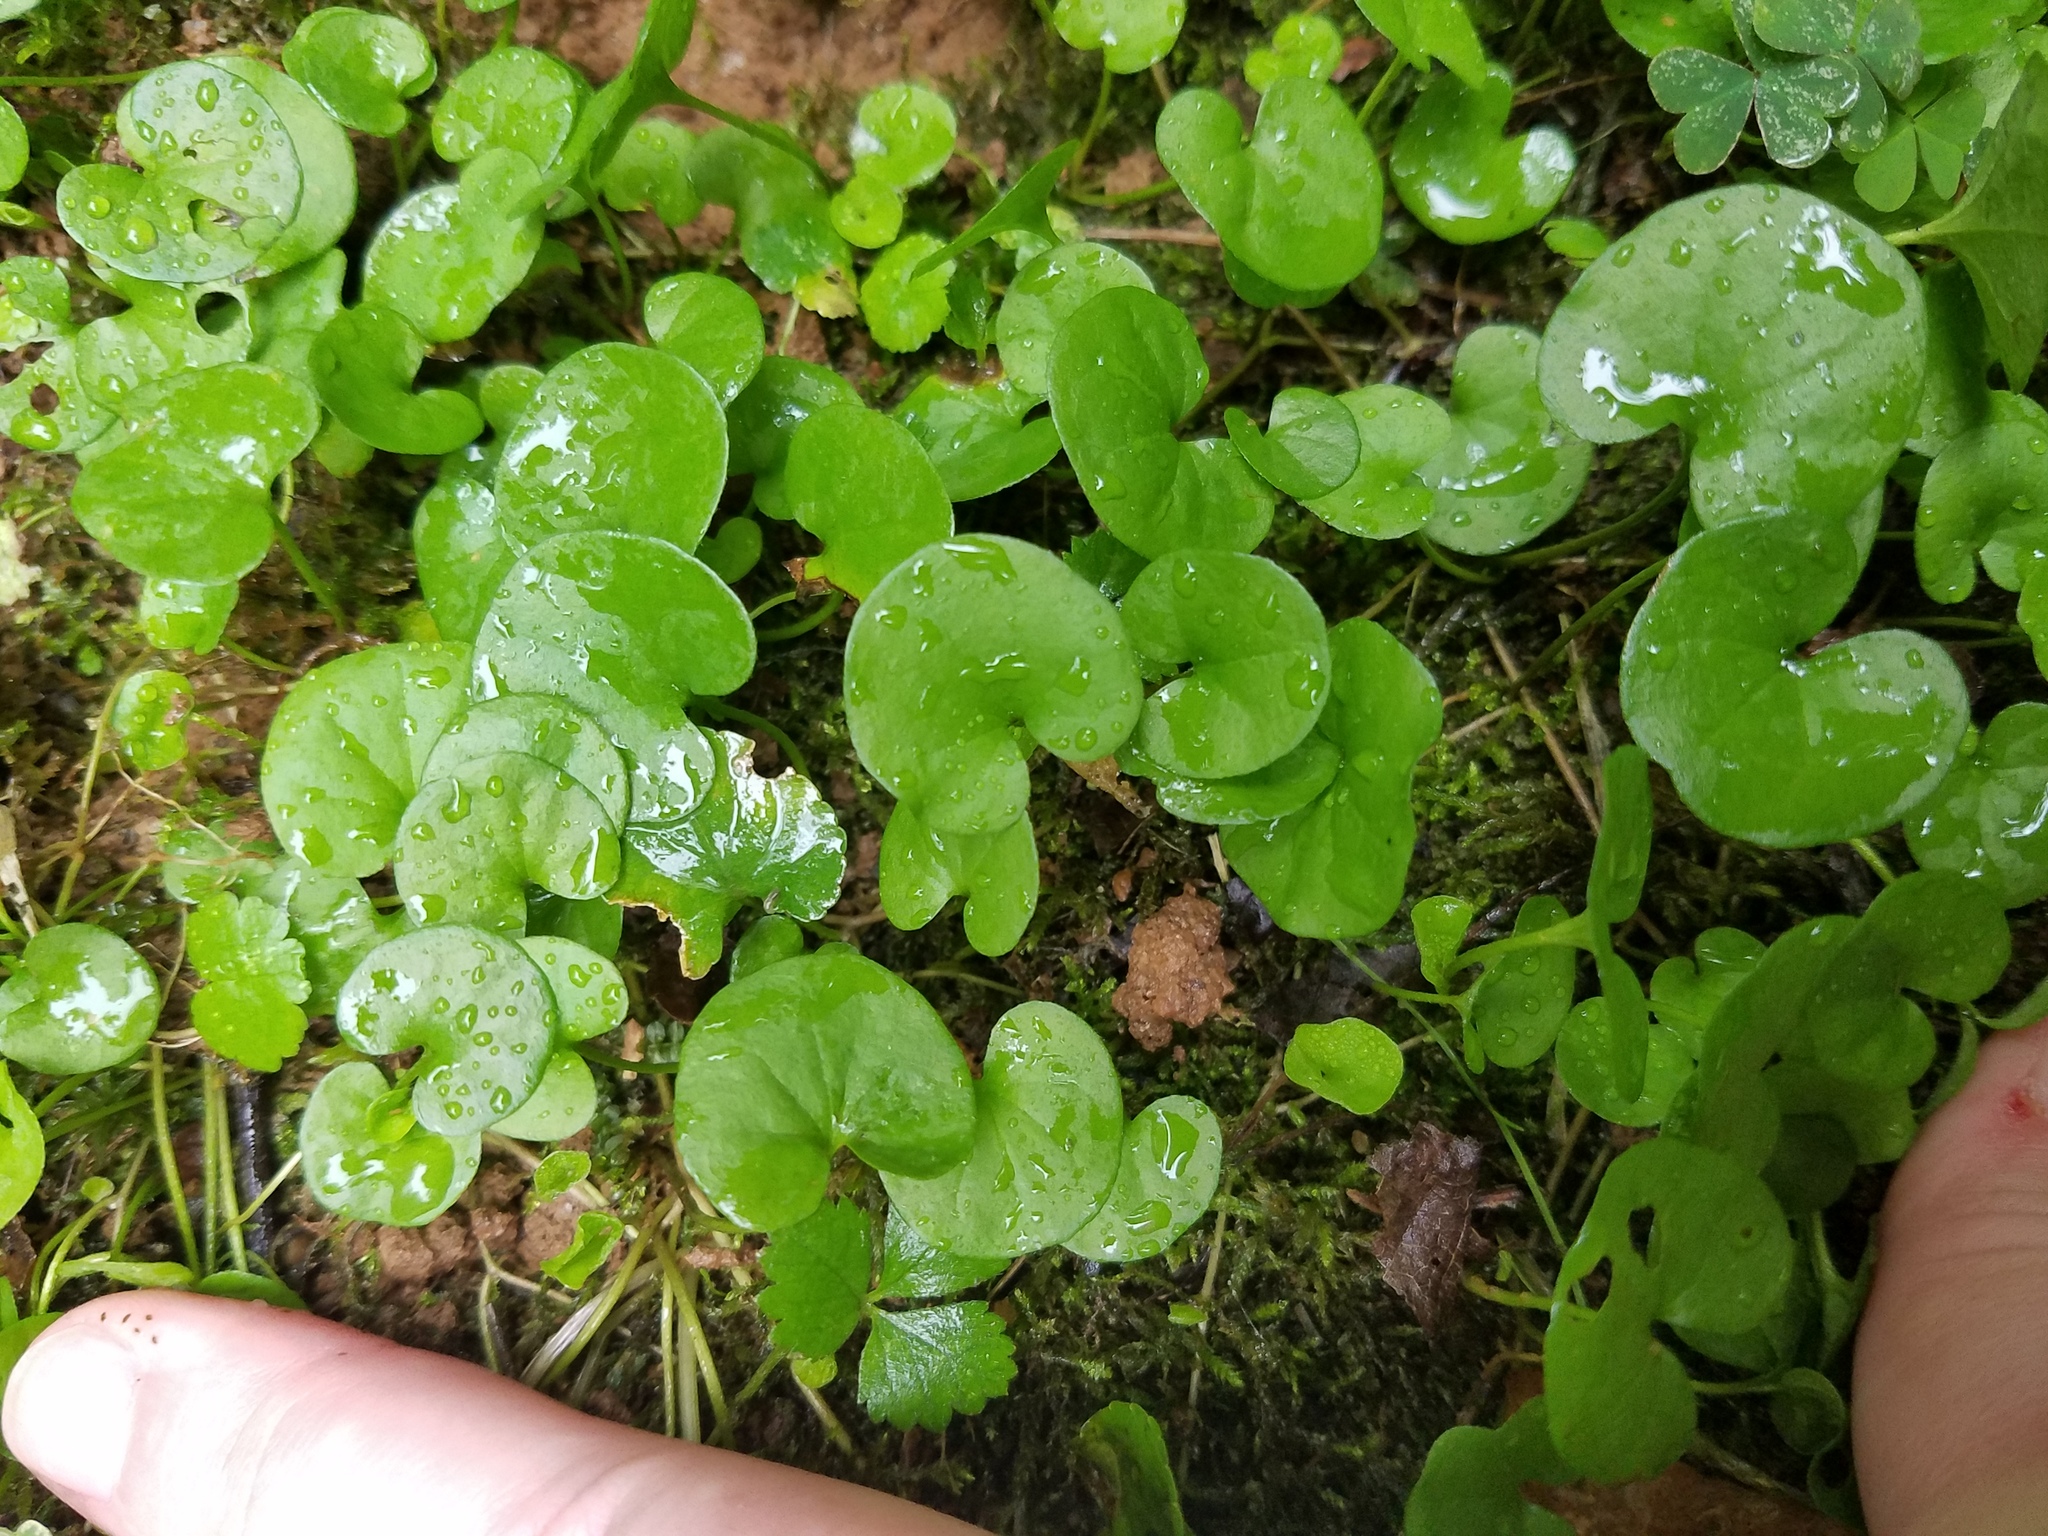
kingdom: Plantae
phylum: Tracheophyta
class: Magnoliopsida
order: Solanales
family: Convolvulaceae
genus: Dichondra
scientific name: Dichondra carolinensis
